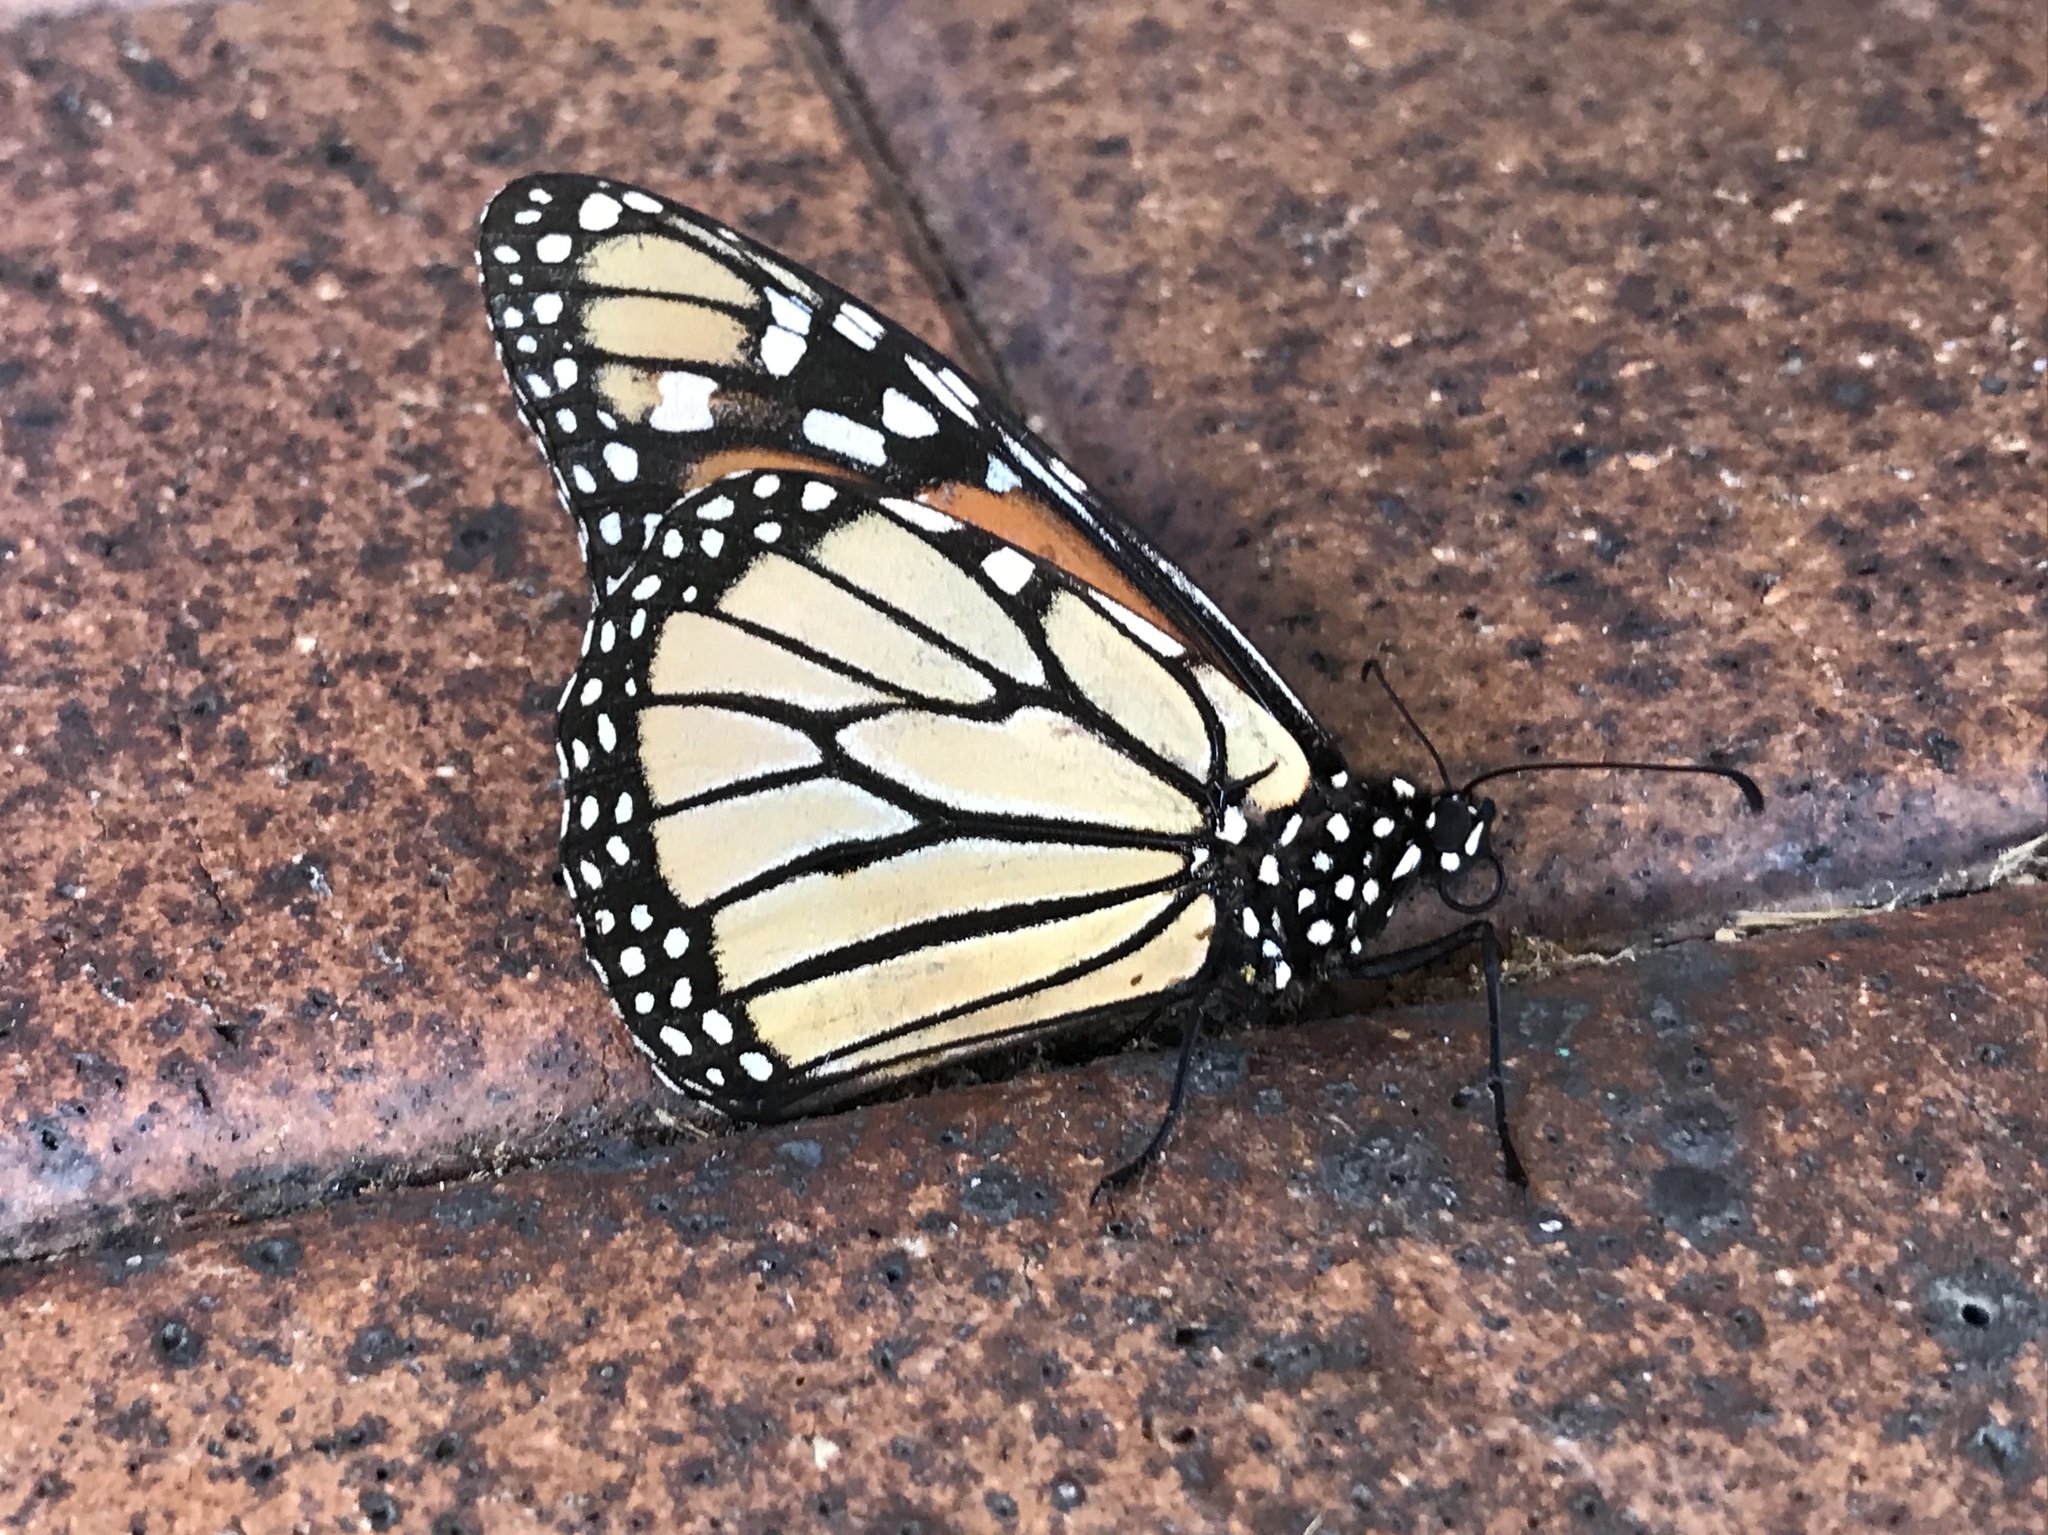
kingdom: Animalia
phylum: Arthropoda
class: Insecta
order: Lepidoptera
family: Nymphalidae
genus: Danaus
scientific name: Danaus plexippus
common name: Monarch
